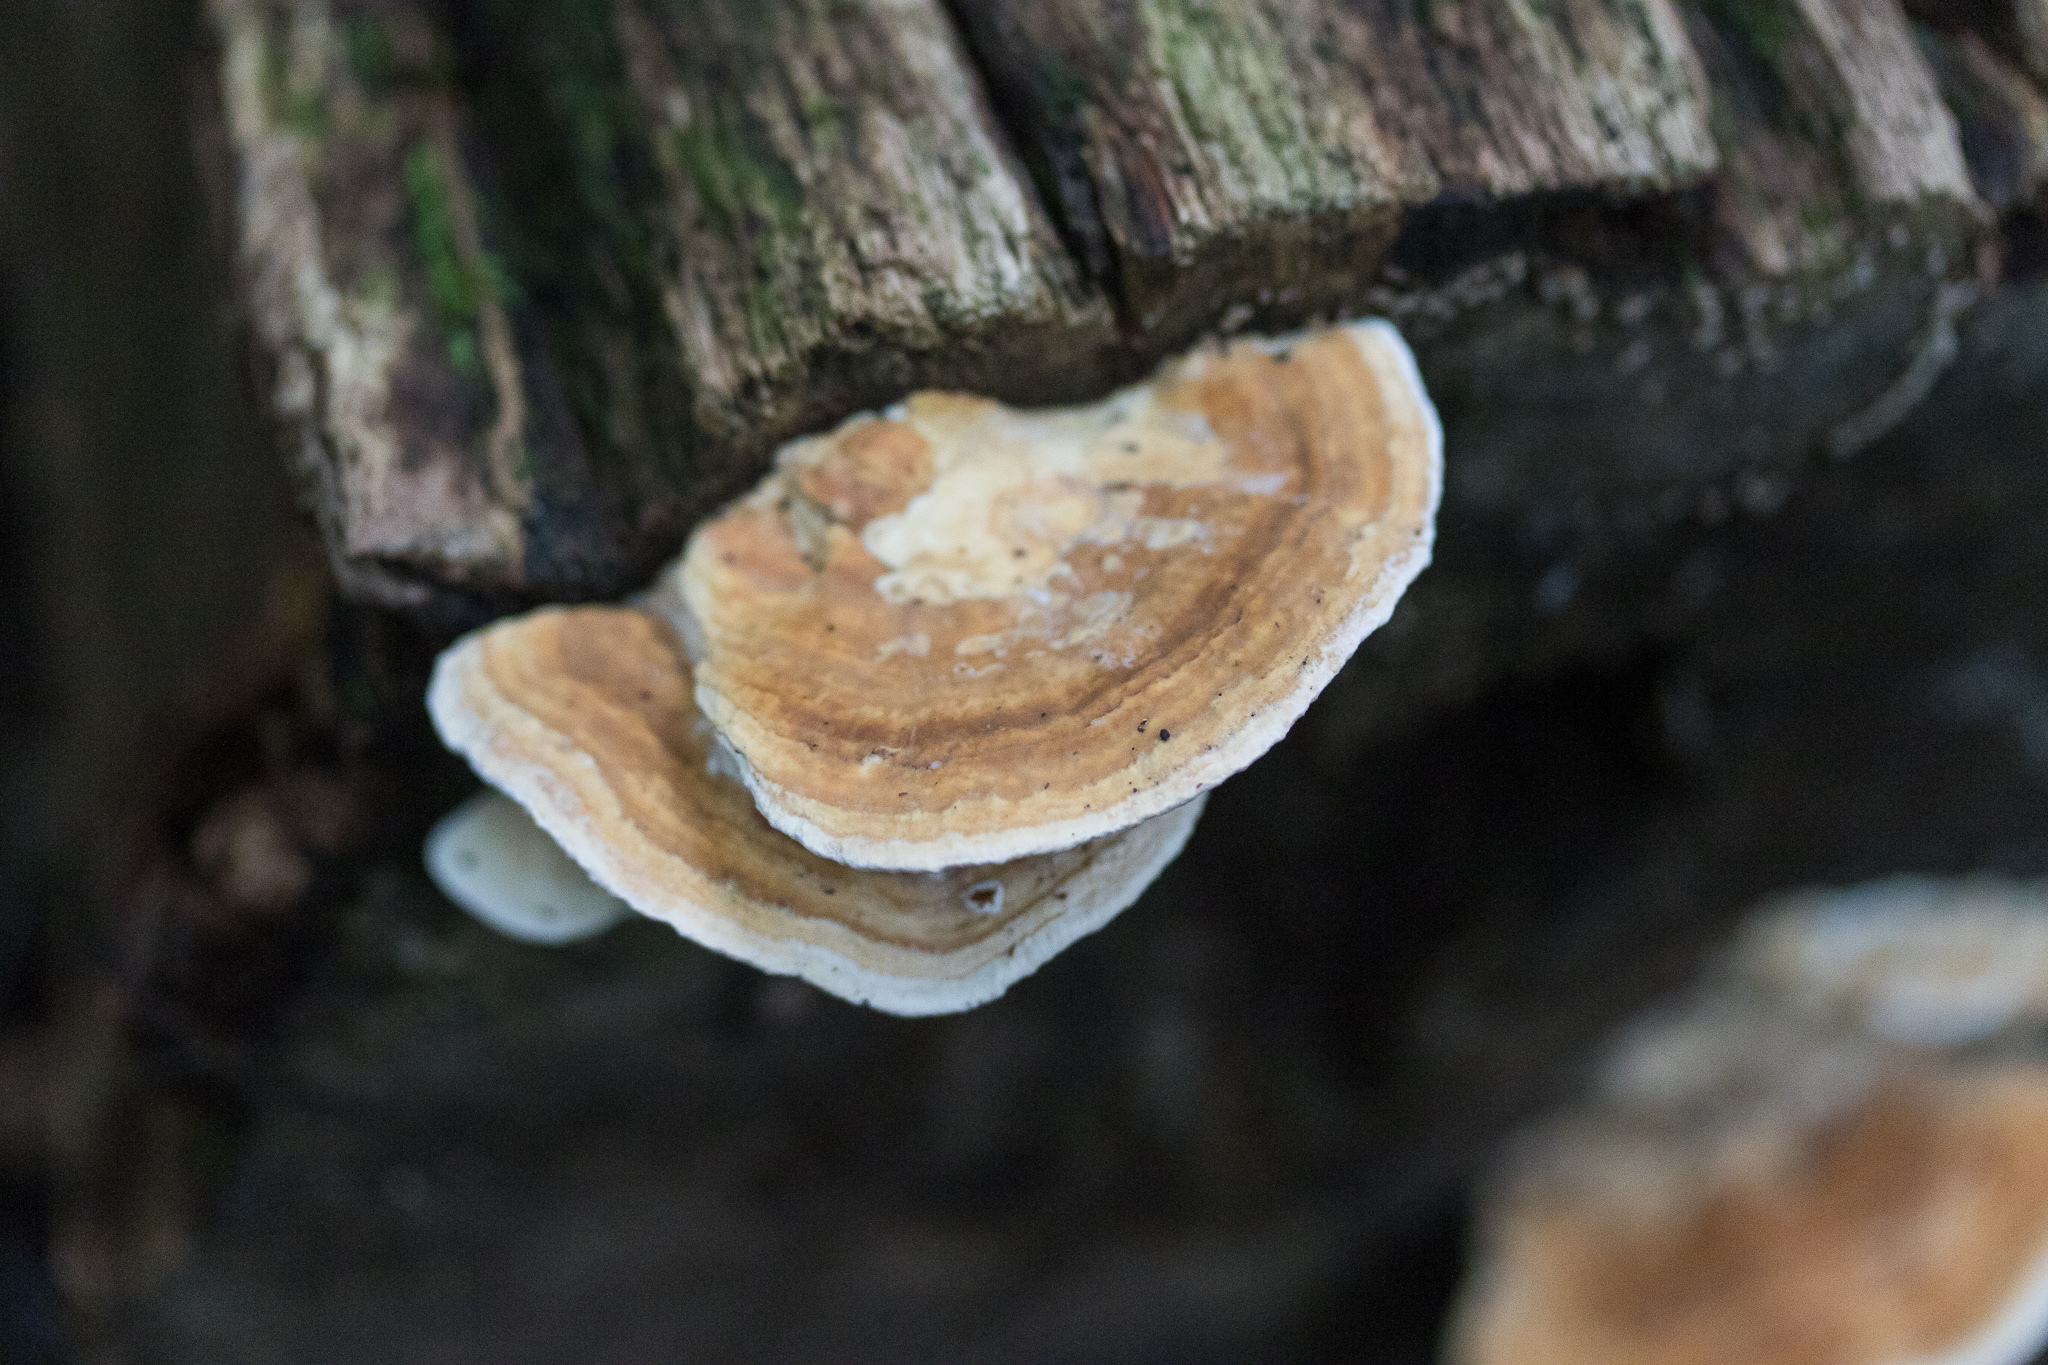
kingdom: Fungi
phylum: Basidiomycota
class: Agaricomycetes
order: Polyporales
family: Fomitopsidaceae
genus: Fomitopsis
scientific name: Fomitopsis
